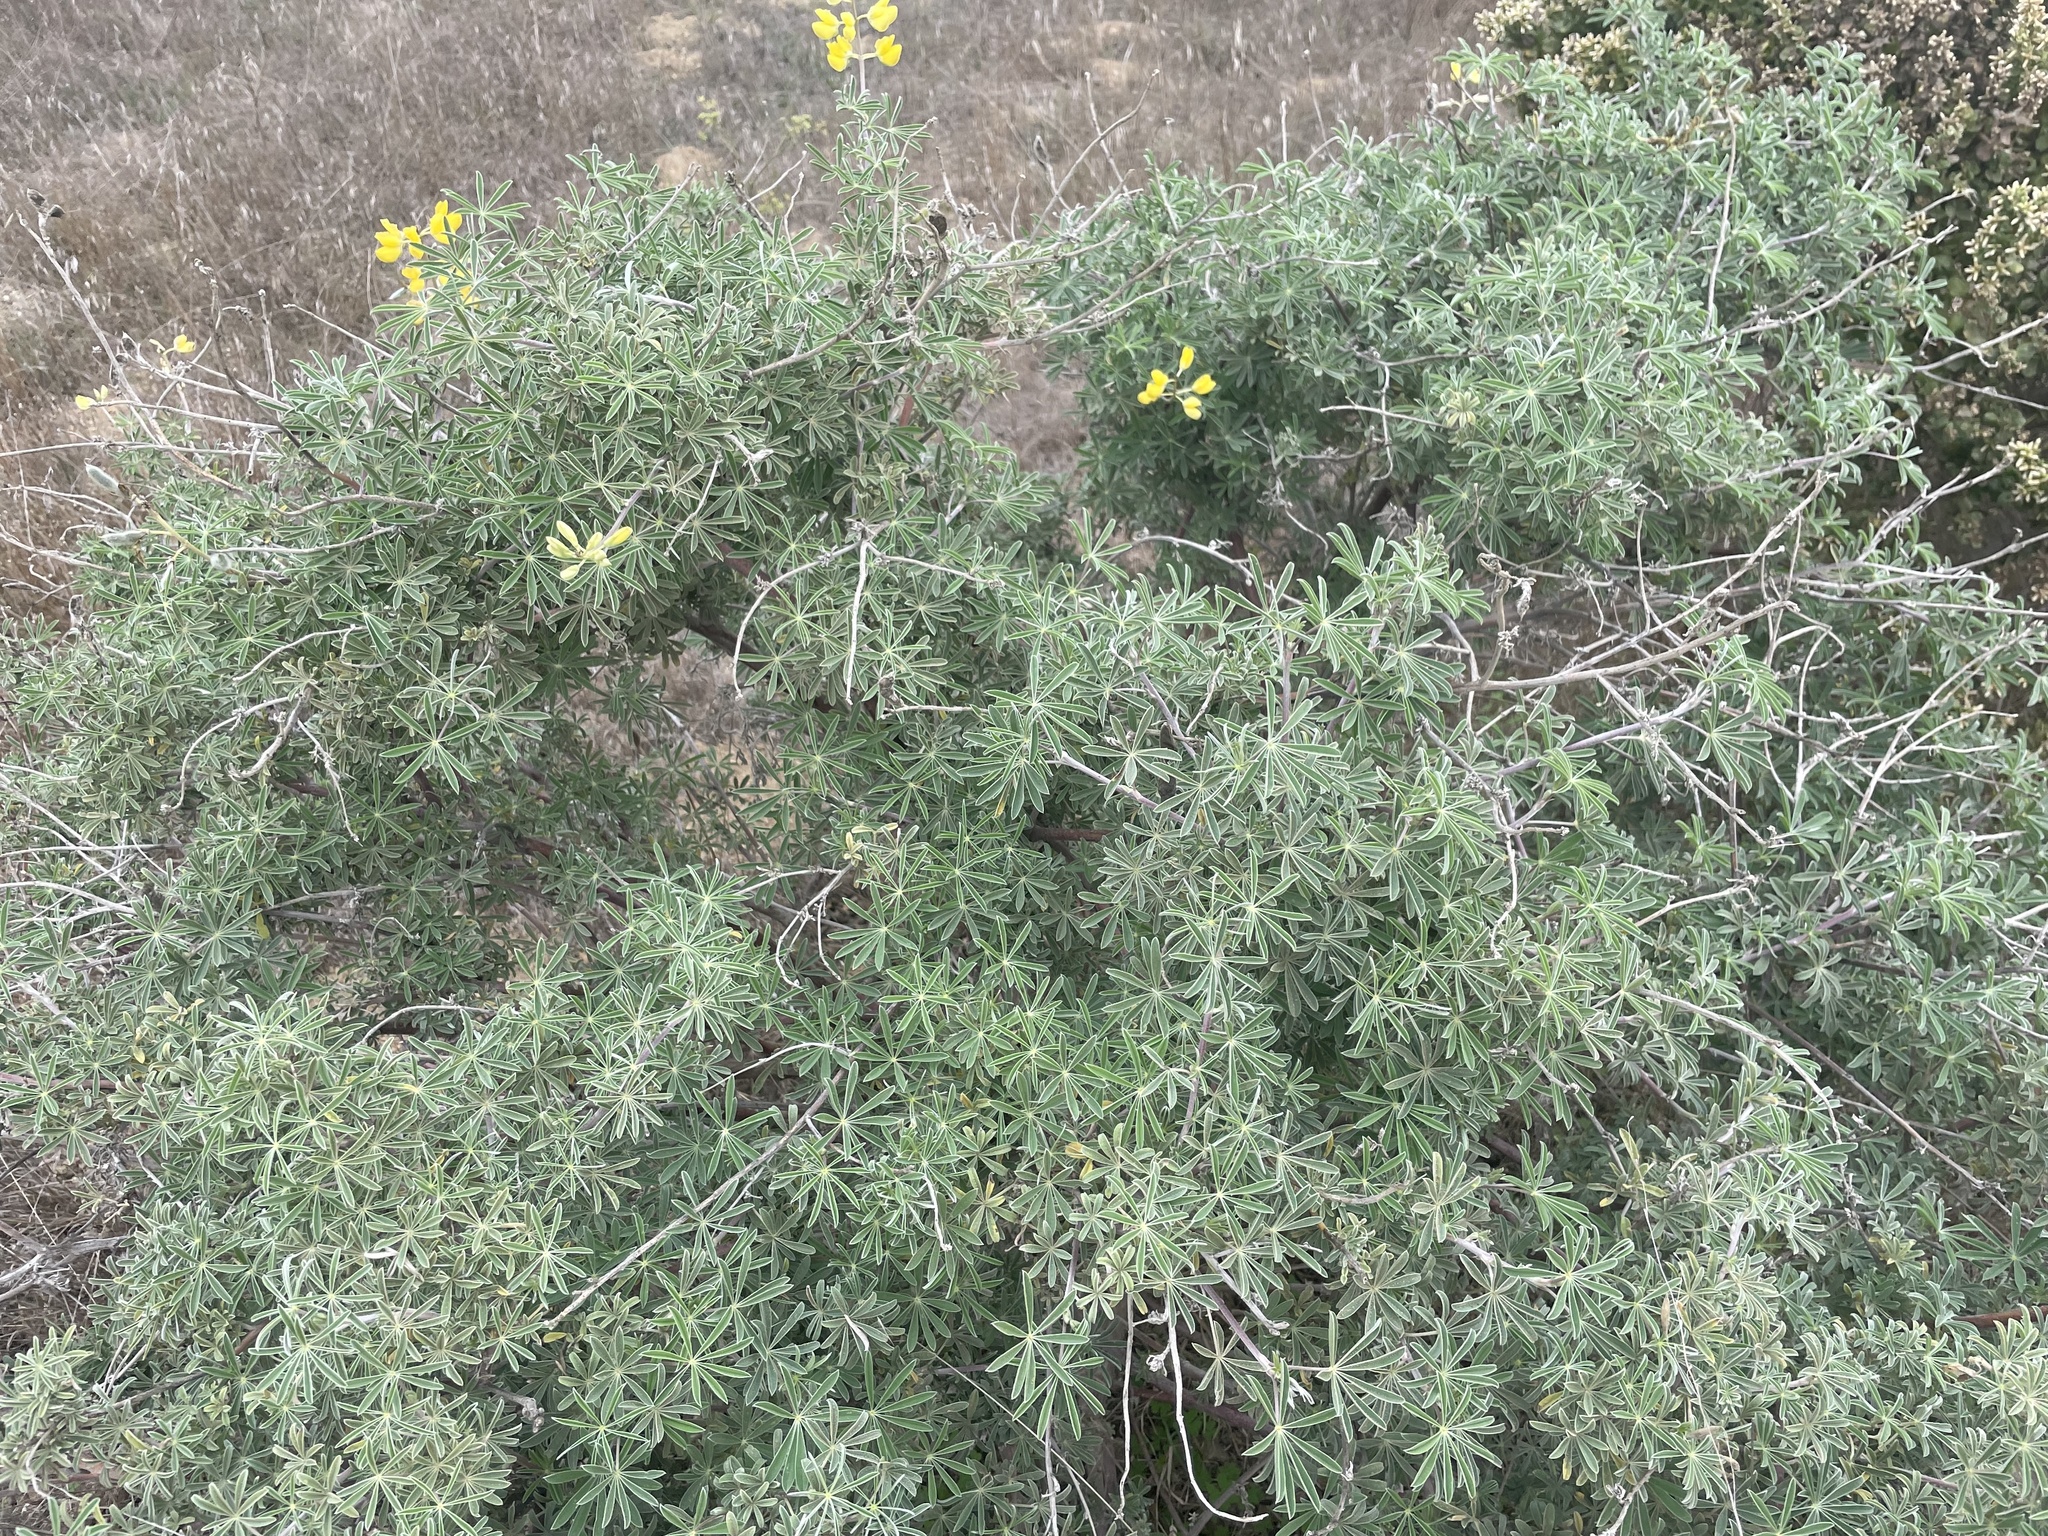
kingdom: Plantae
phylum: Tracheophyta
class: Magnoliopsida
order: Fabales
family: Fabaceae
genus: Lupinus
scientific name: Lupinus arboreus
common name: Yellow bush lupine
